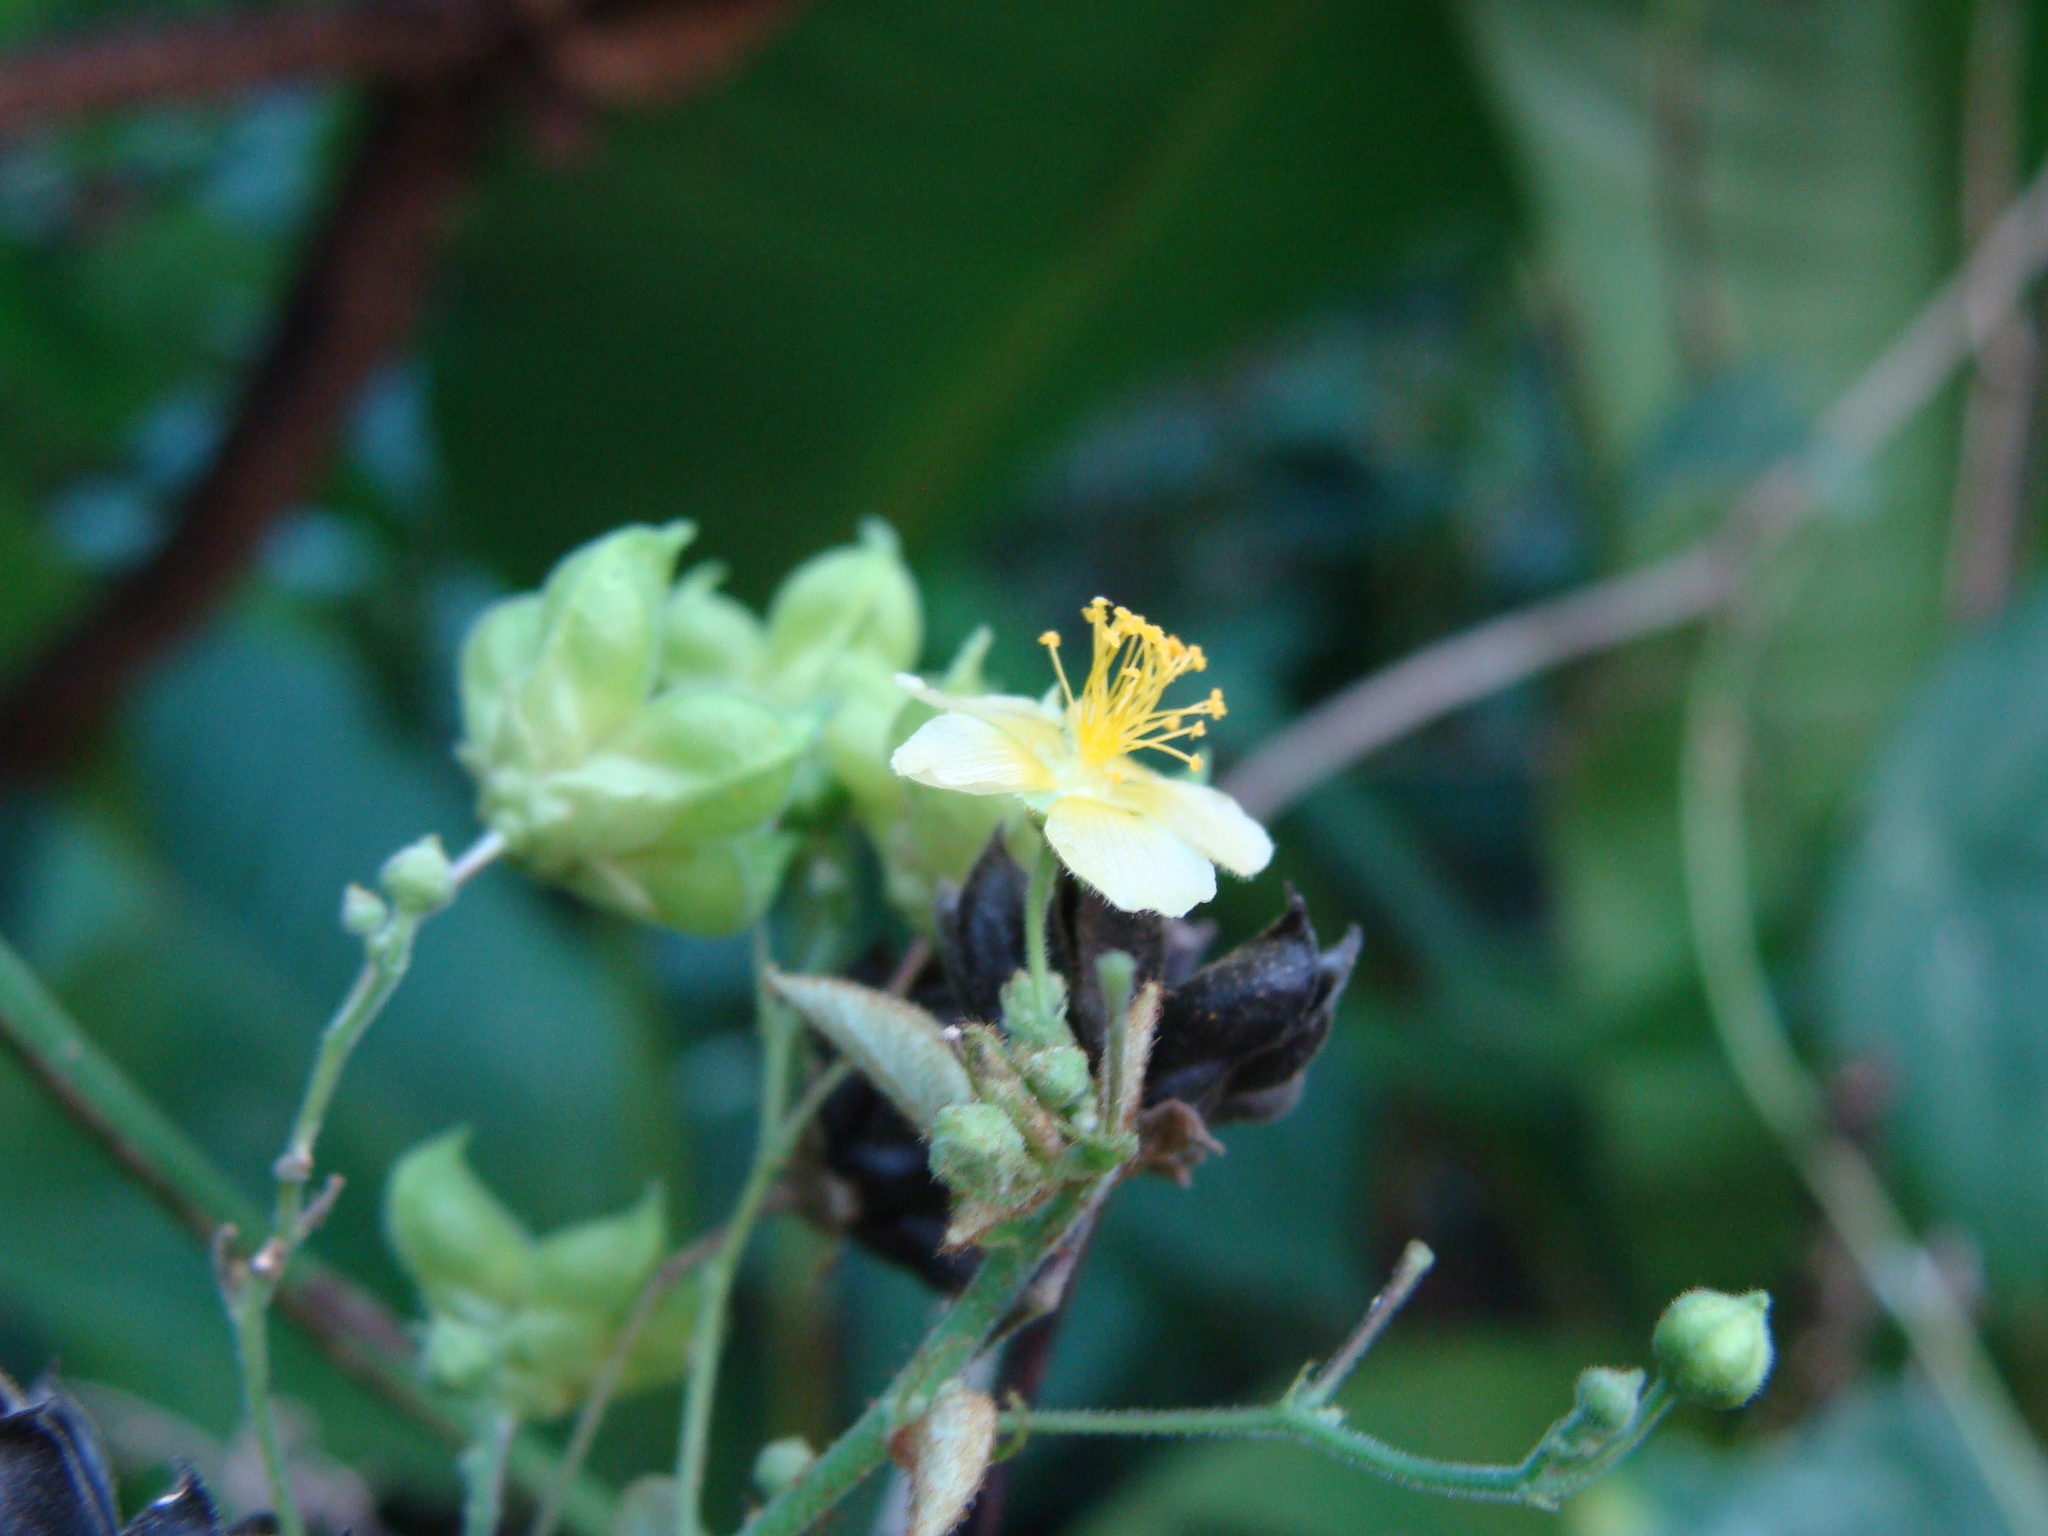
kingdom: Plantae
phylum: Tracheophyta
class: Magnoliopsida
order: Malvales
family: Malvaceae
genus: Wissadula
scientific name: Wissadula excelsior
